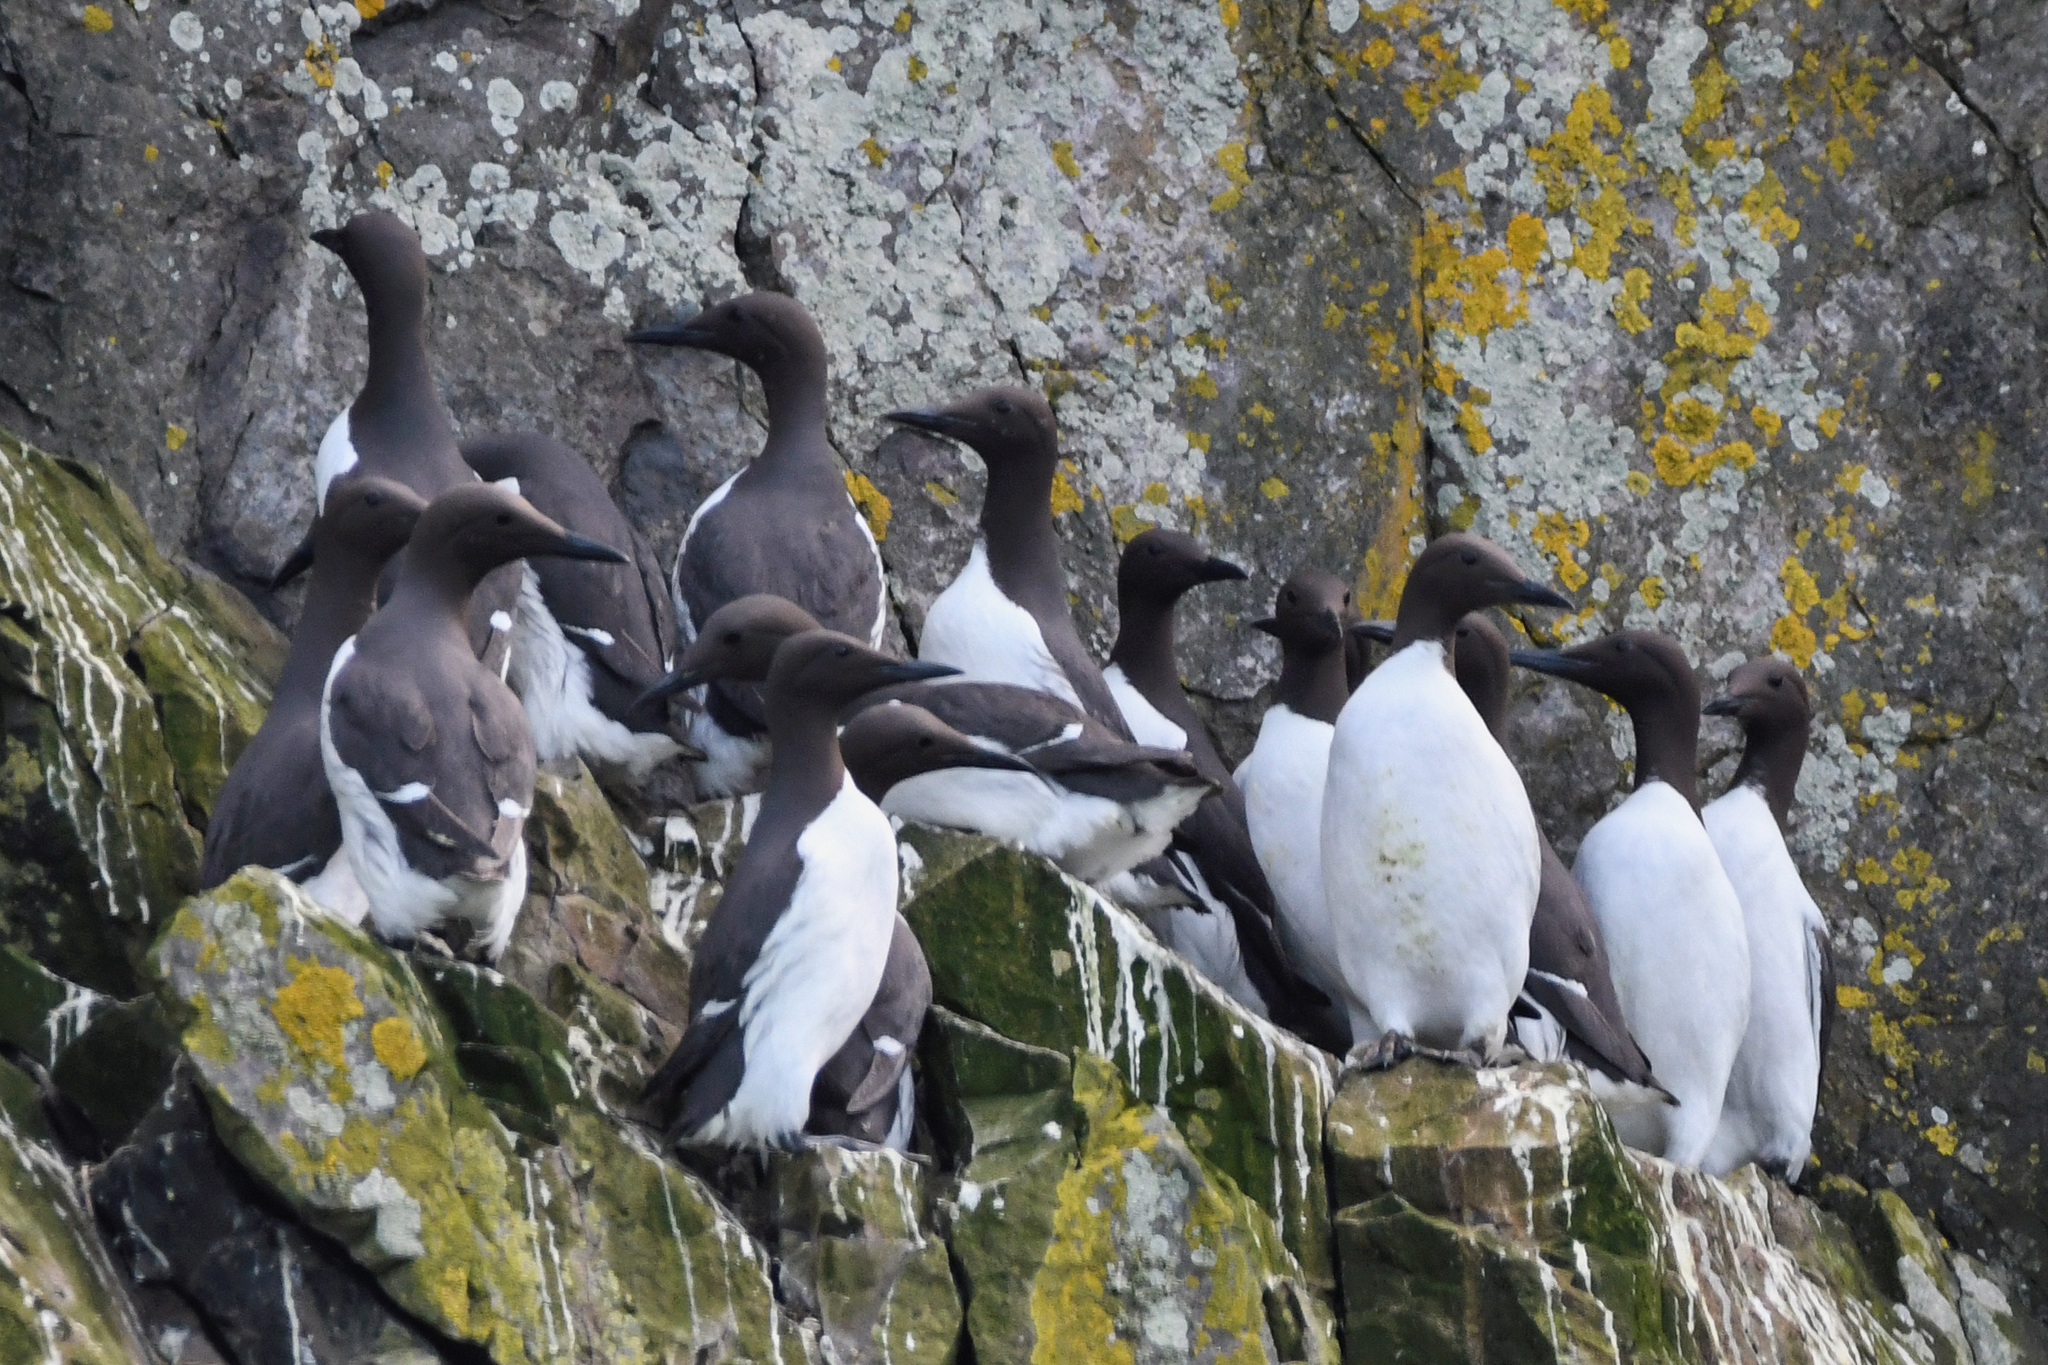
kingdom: Animalia
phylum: Chordata
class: Aves
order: Charadriiformes
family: Alcidae
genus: Uria
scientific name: Uria aalge
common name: Common murre
